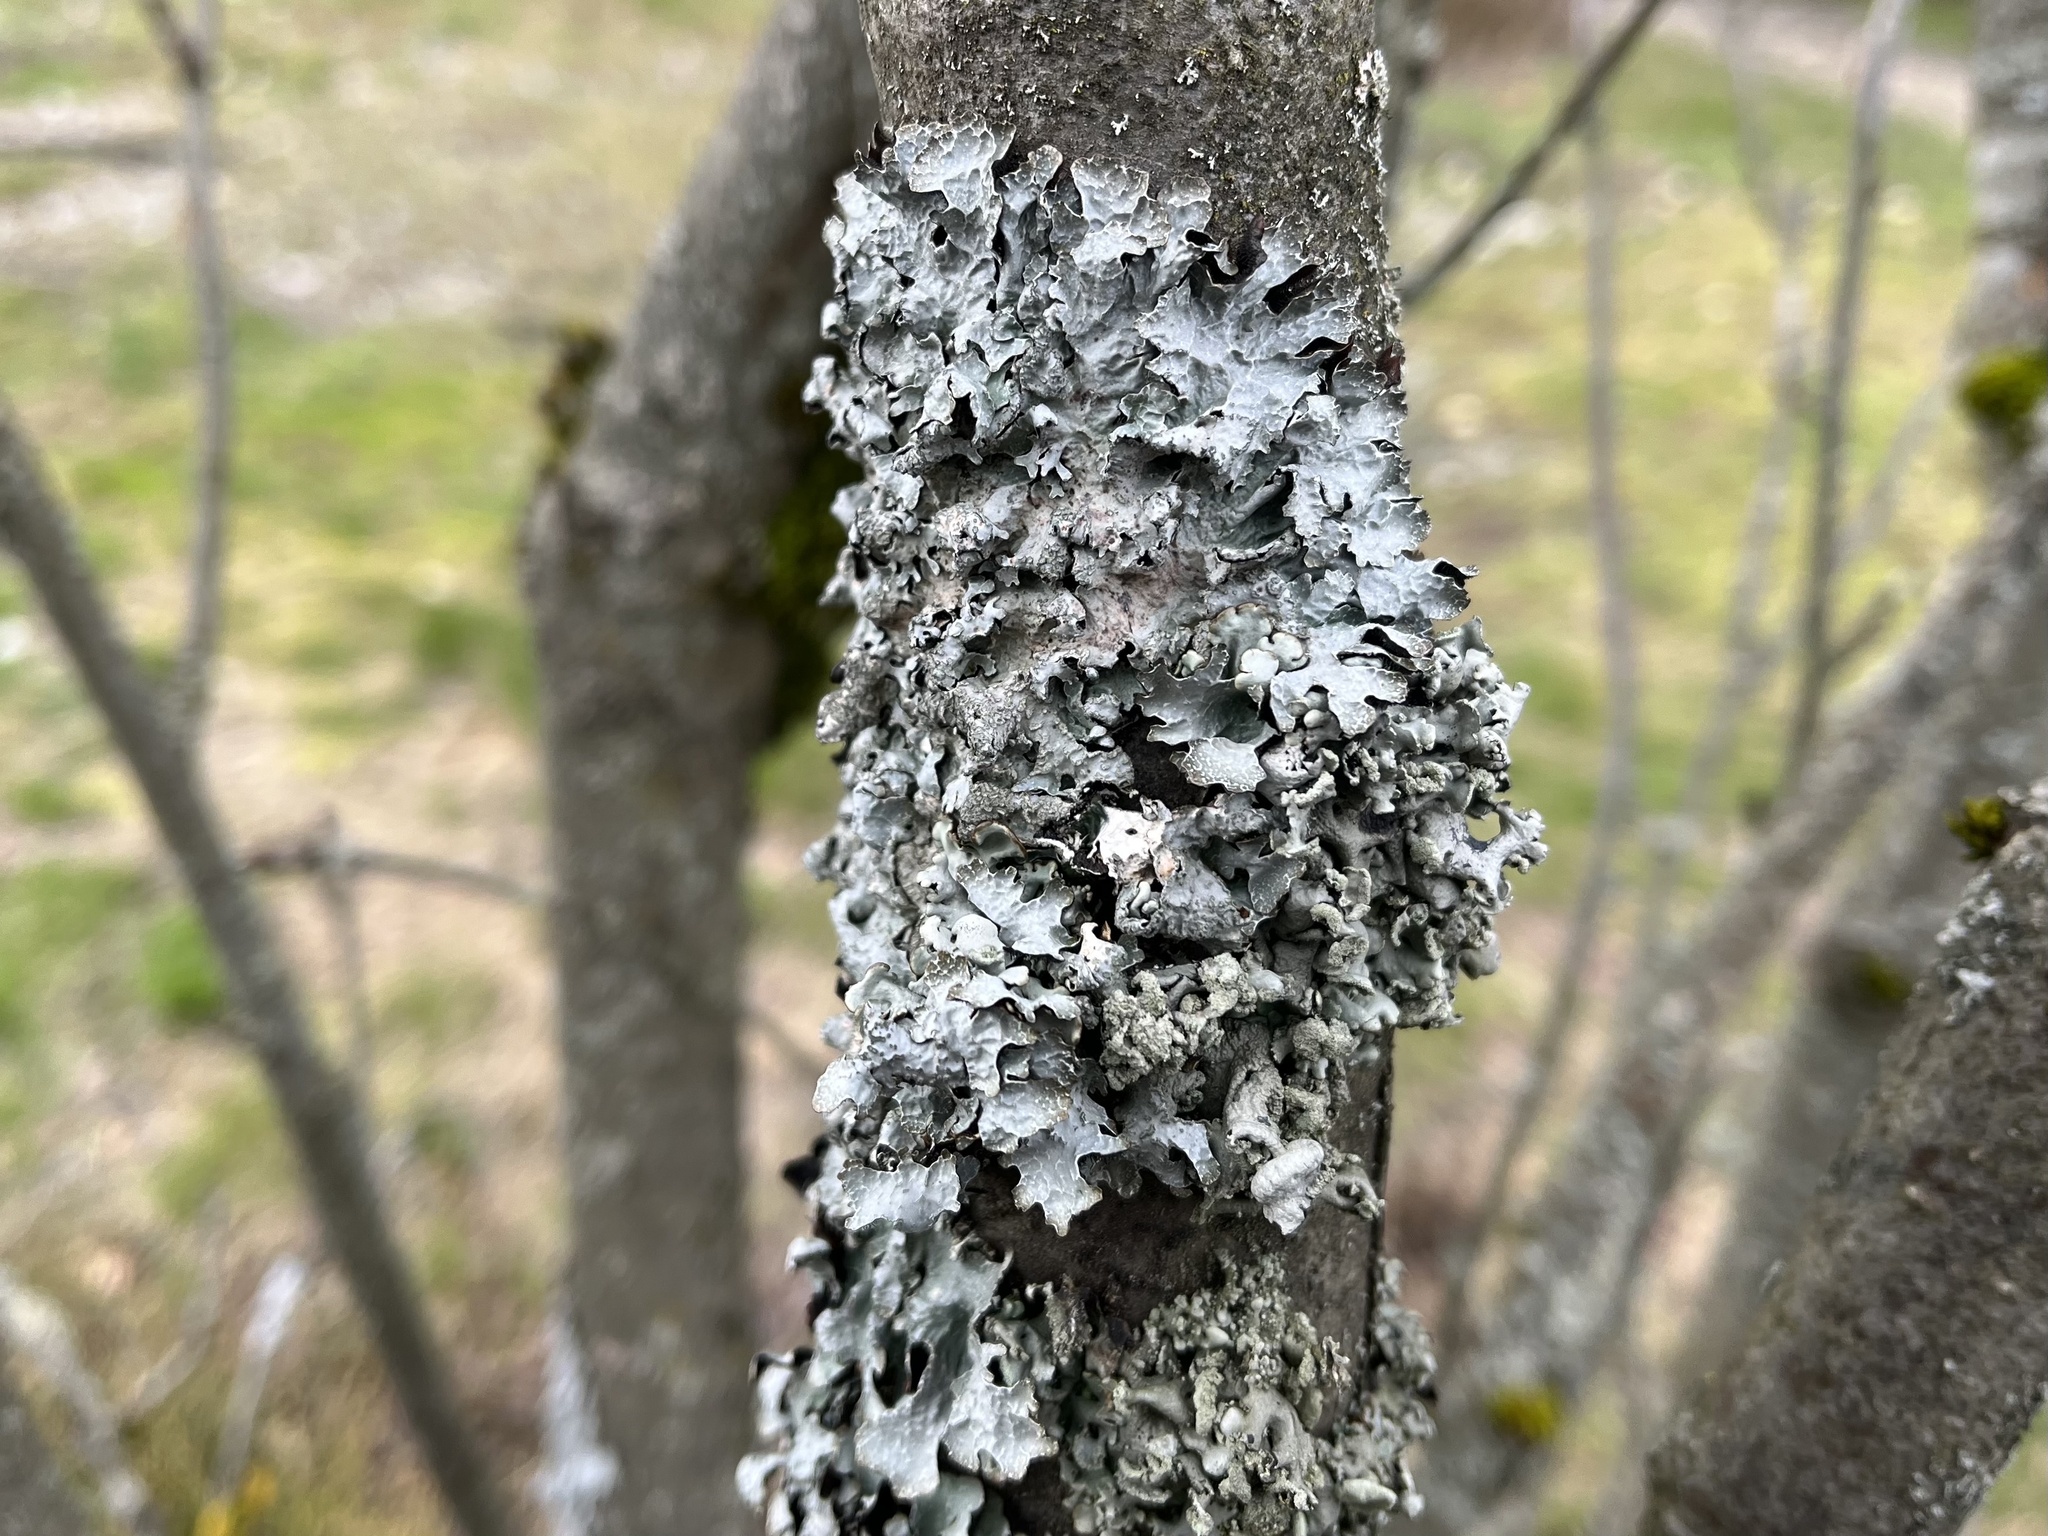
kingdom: Fungi
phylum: Ascomycota
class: Lecanoromycetes
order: Lecanorales
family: Parmeliaceae
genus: Parmelia
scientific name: Parmelia sulcata
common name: Netted shield lichen
